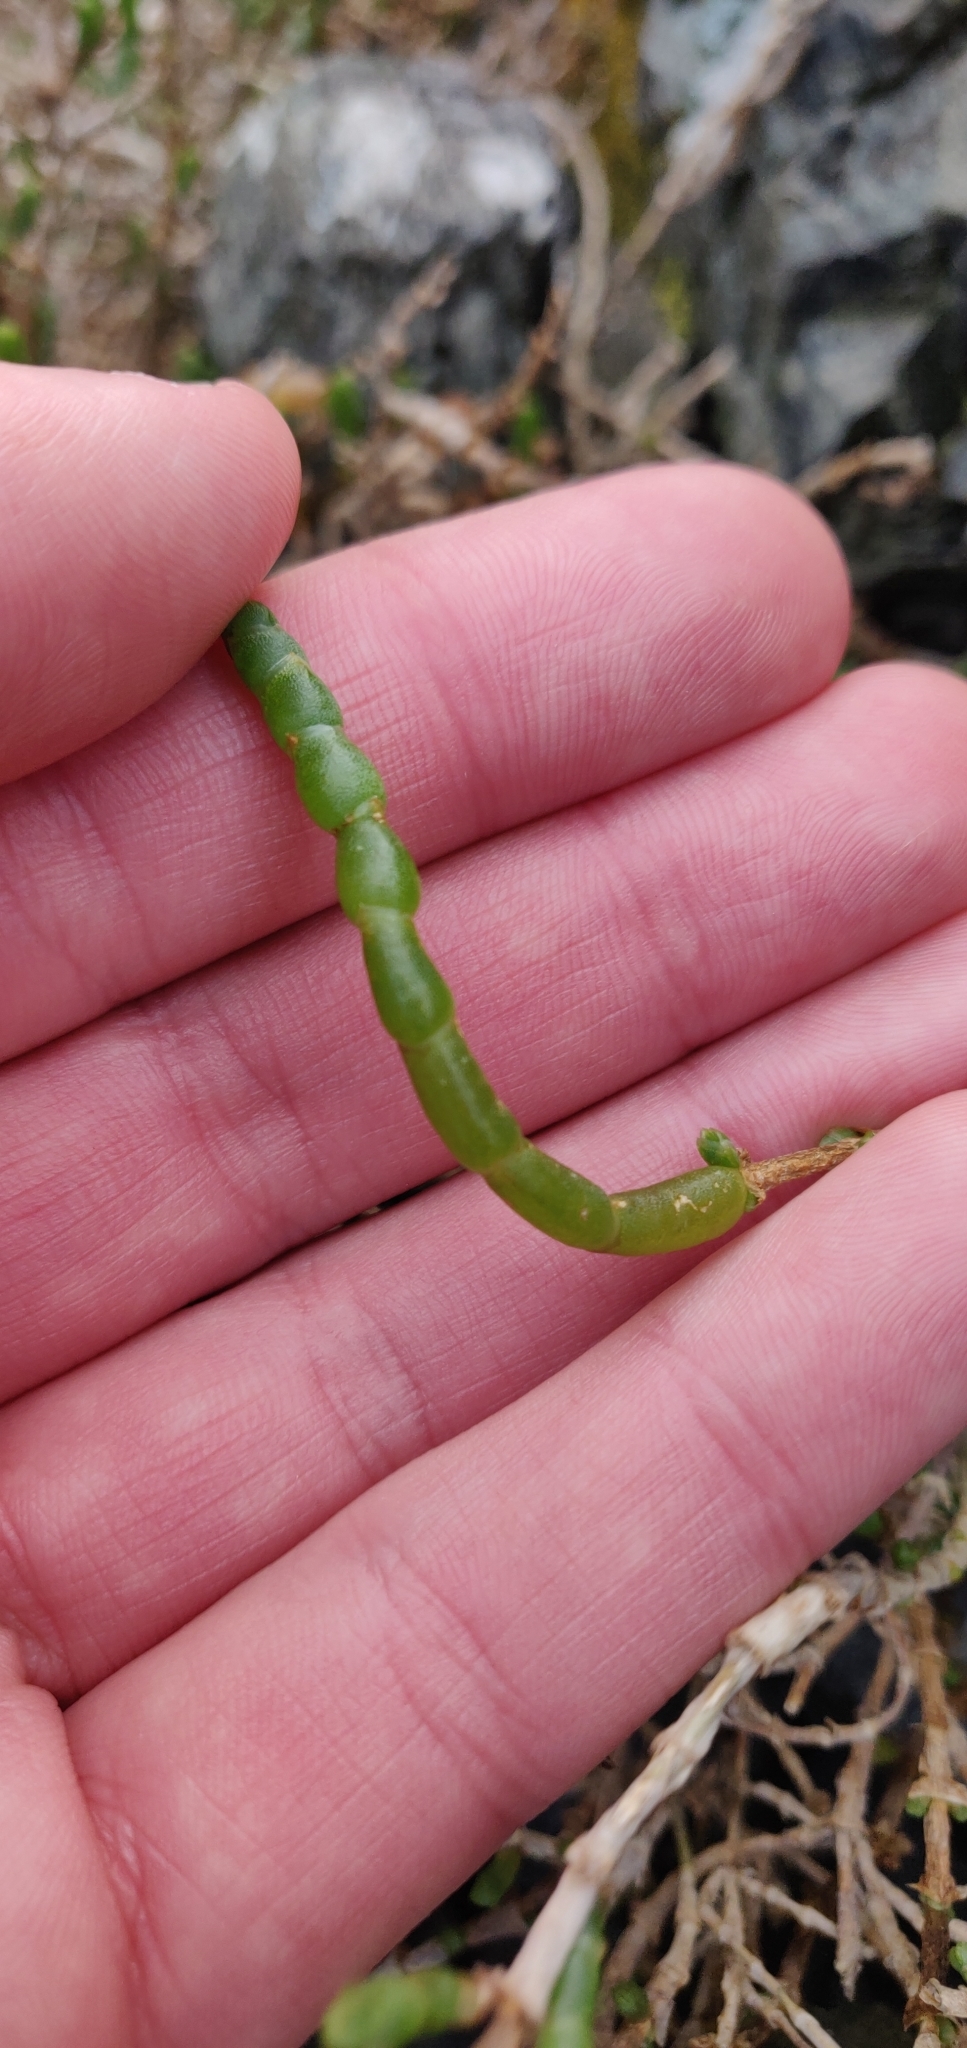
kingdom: Plantae
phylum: Tracheophyta
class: Magnoliopsida
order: Caryophyllales
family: Amaranthaceae
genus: Salicornia
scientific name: Salicornia quinqueflora
